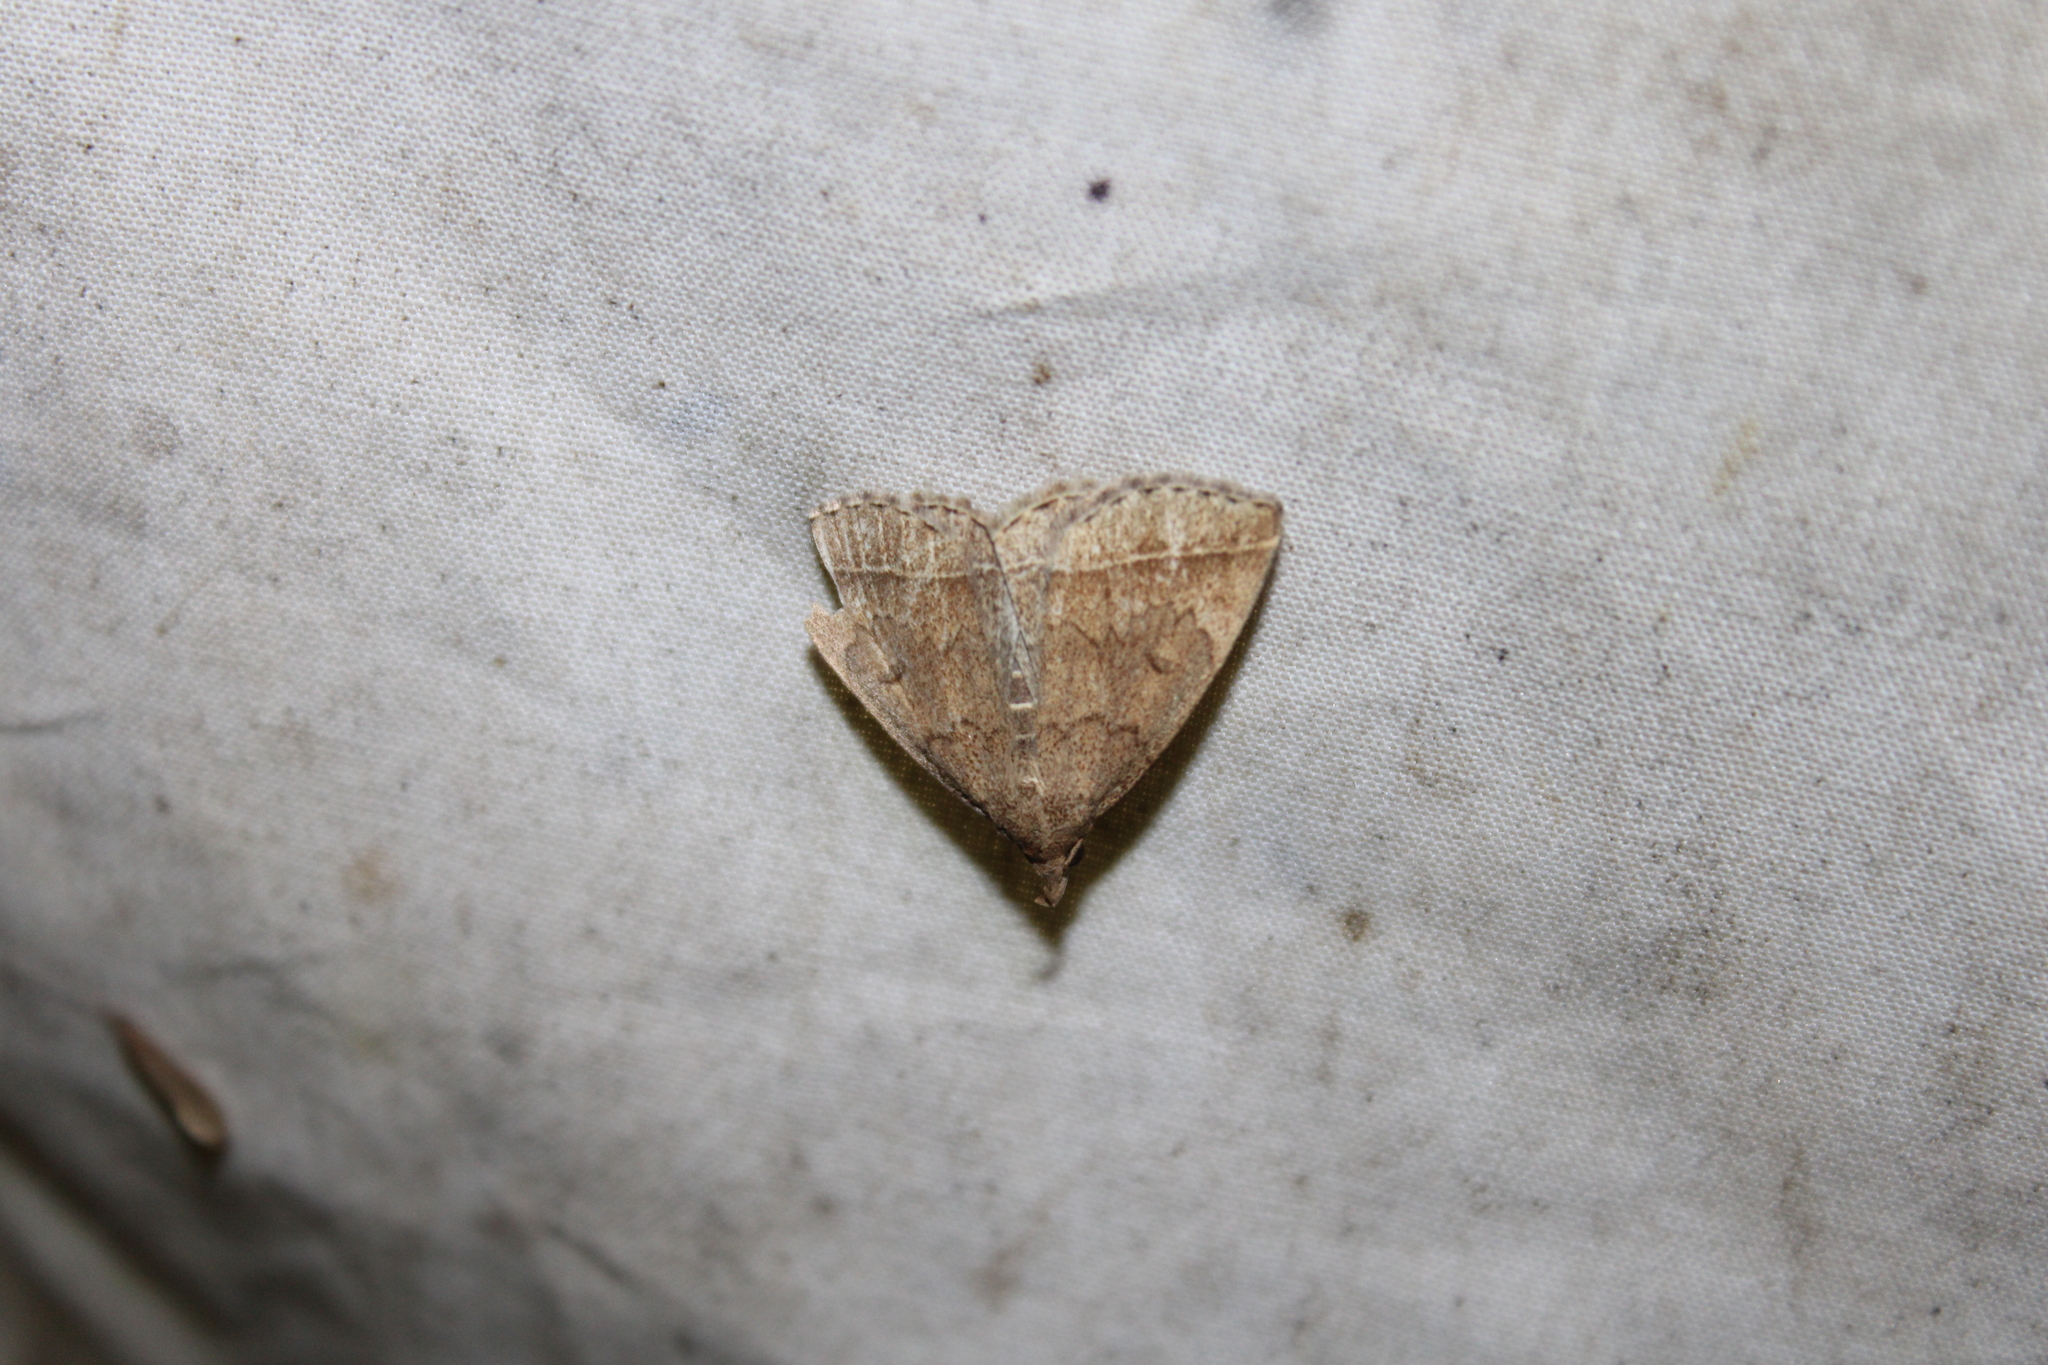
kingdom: Animalia
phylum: Arthropoda
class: Insecta
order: Lepidoptera
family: Erebidae
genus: Zanclognatha
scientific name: Zanclognatha jacchusalis
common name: Yellowish zanclognatha
